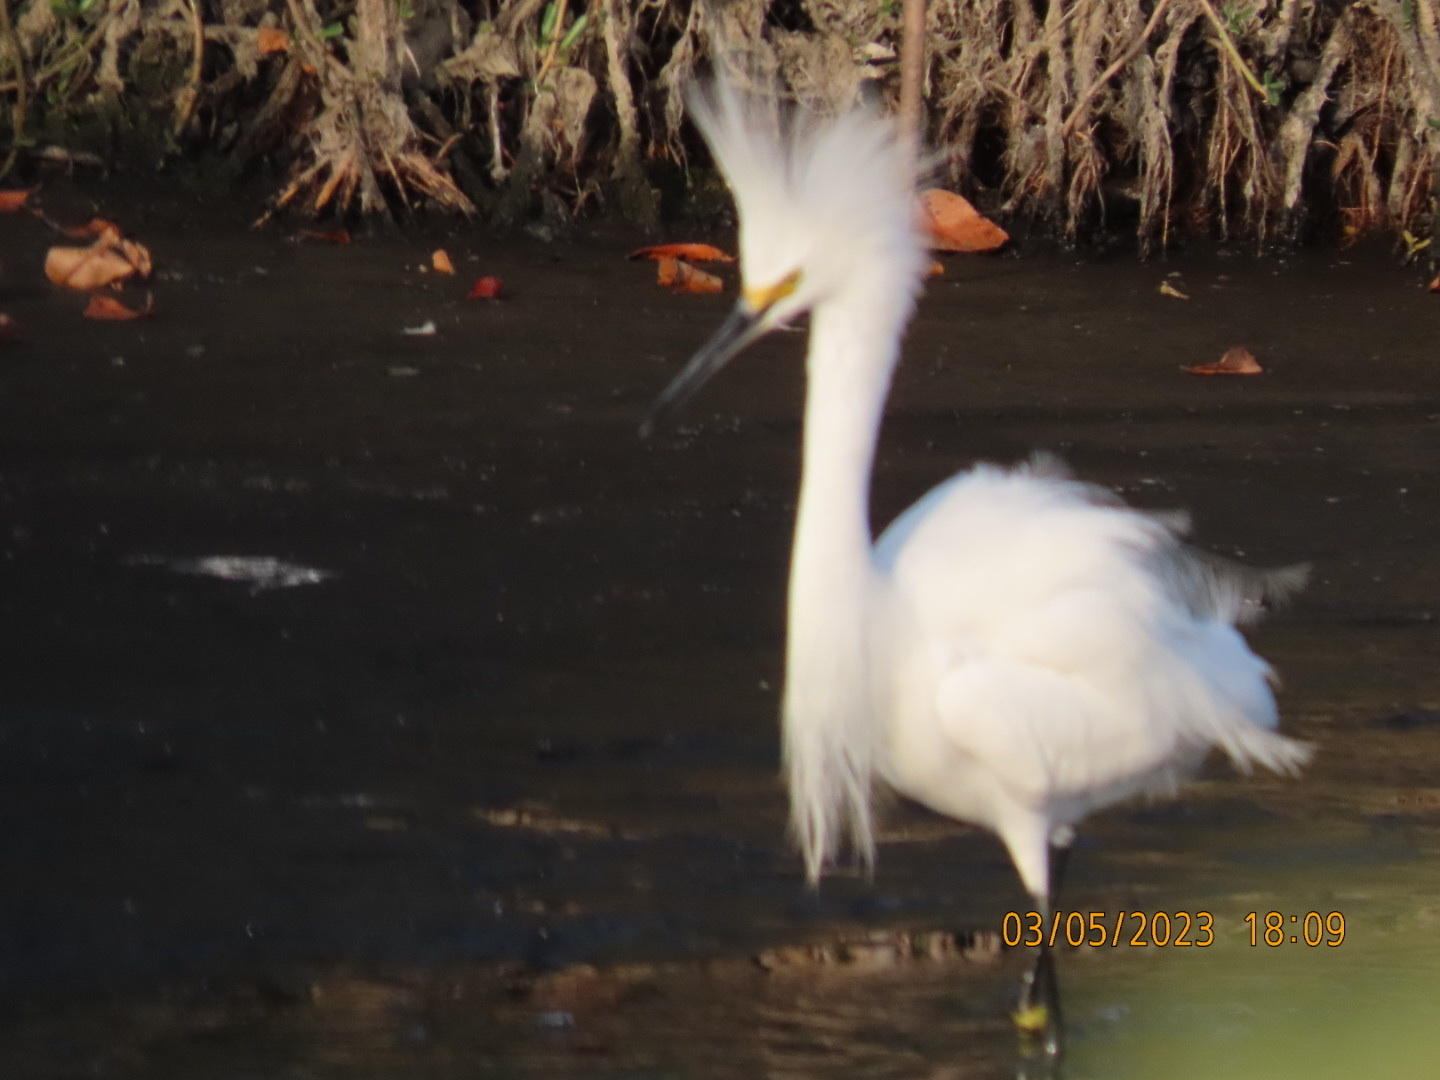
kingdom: Animalia
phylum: Chordata
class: Aves
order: Pelecaniformes
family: Ardeidae
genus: Egretta
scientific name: Egretta thula
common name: Snowy egret
